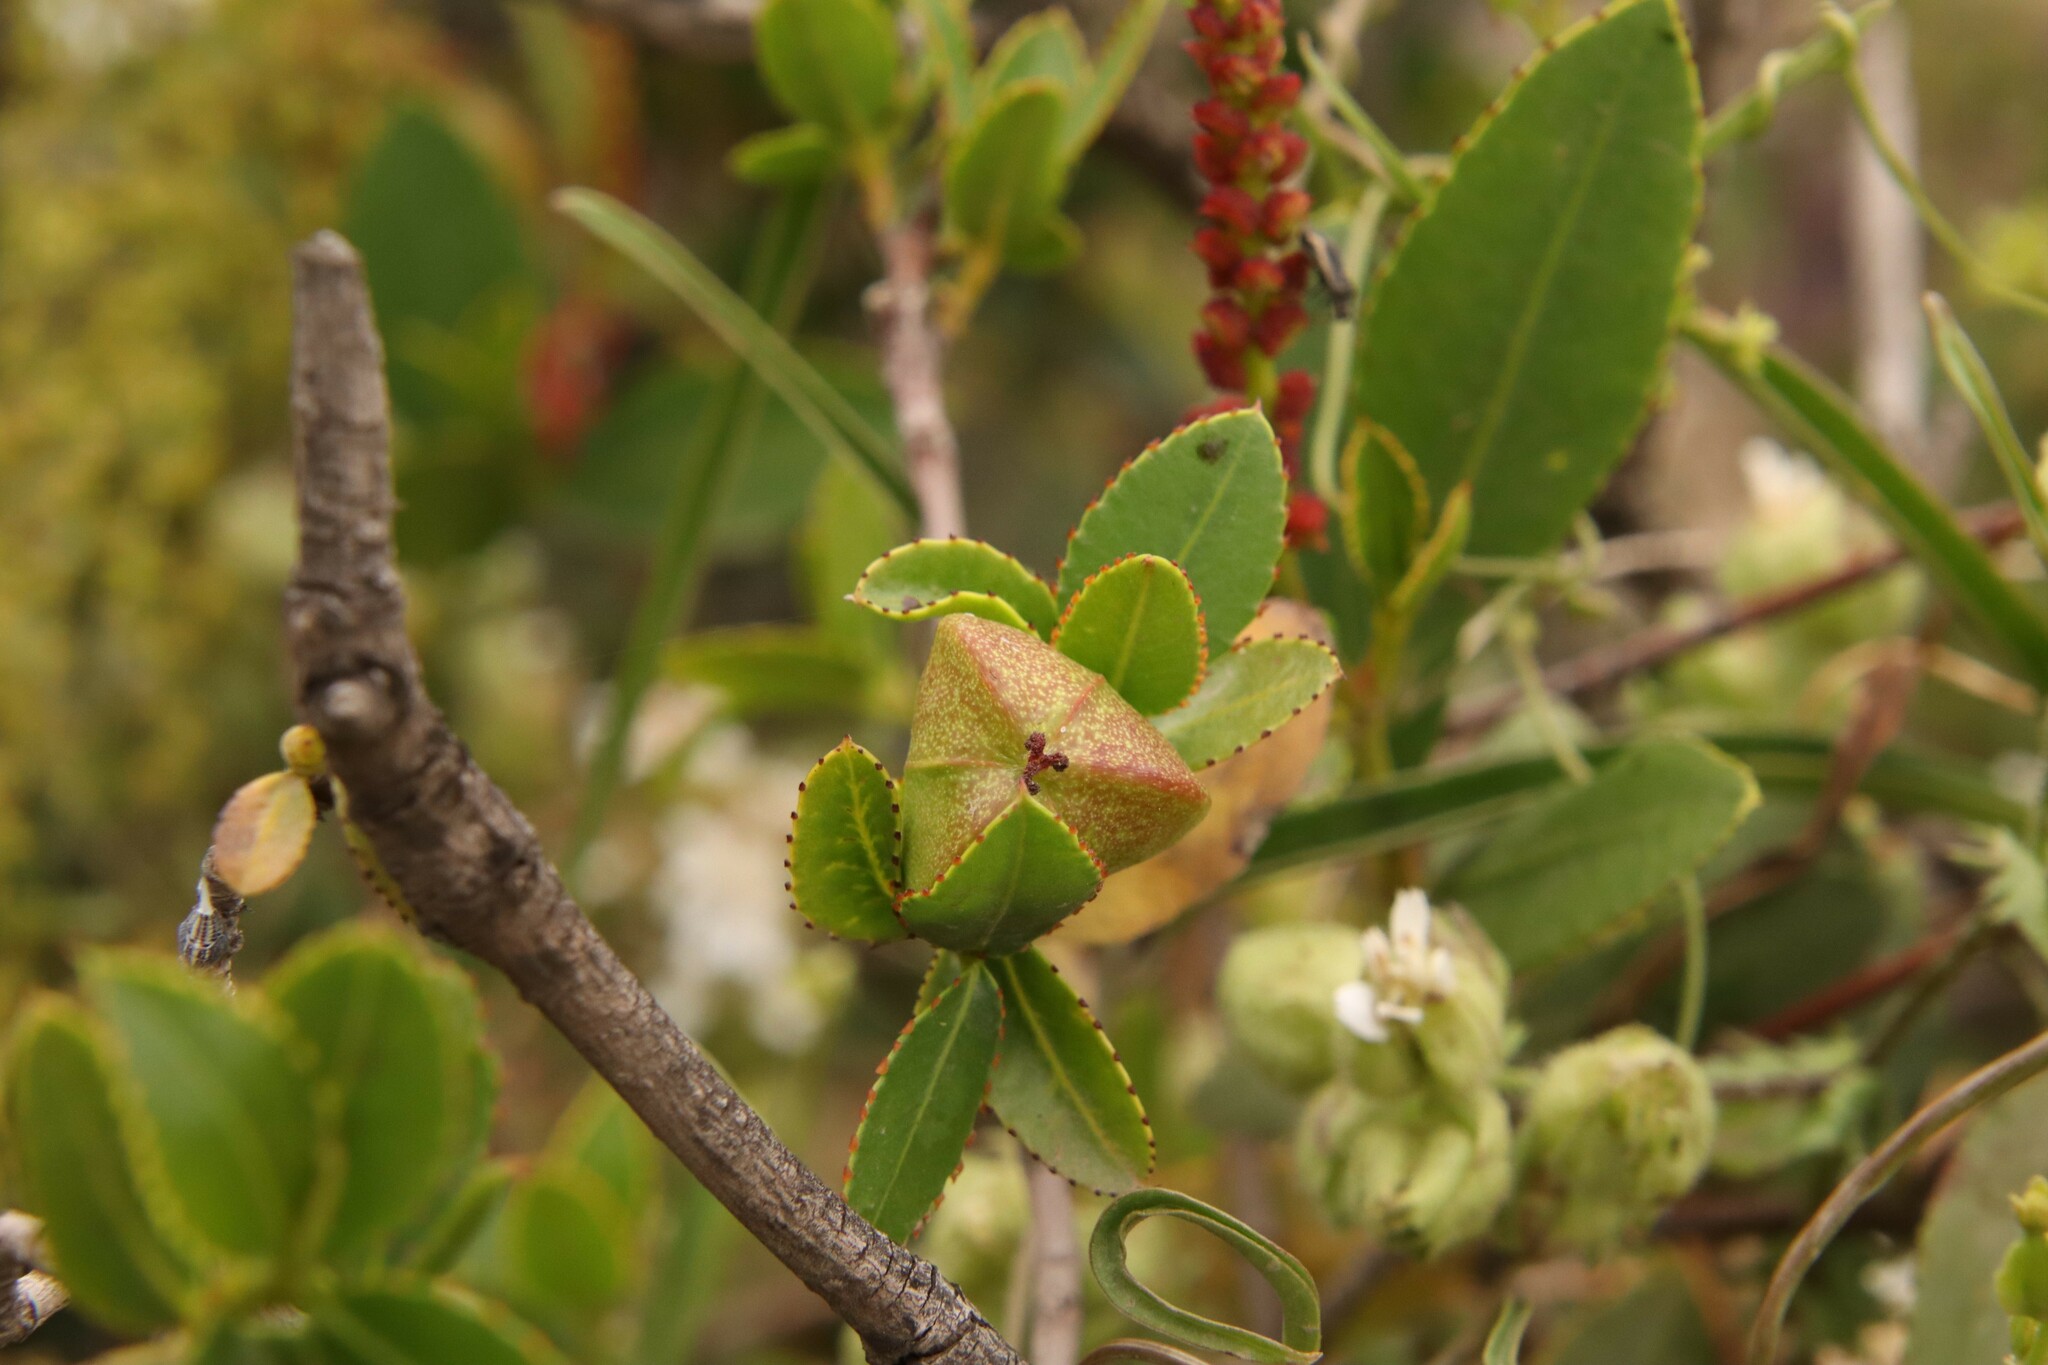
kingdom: Plantae
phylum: Tracheophyta
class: Magnoliopsida
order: Malpighiales
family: Euphorbiaceae
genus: Colliguaja
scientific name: Colliguaja odorifera
